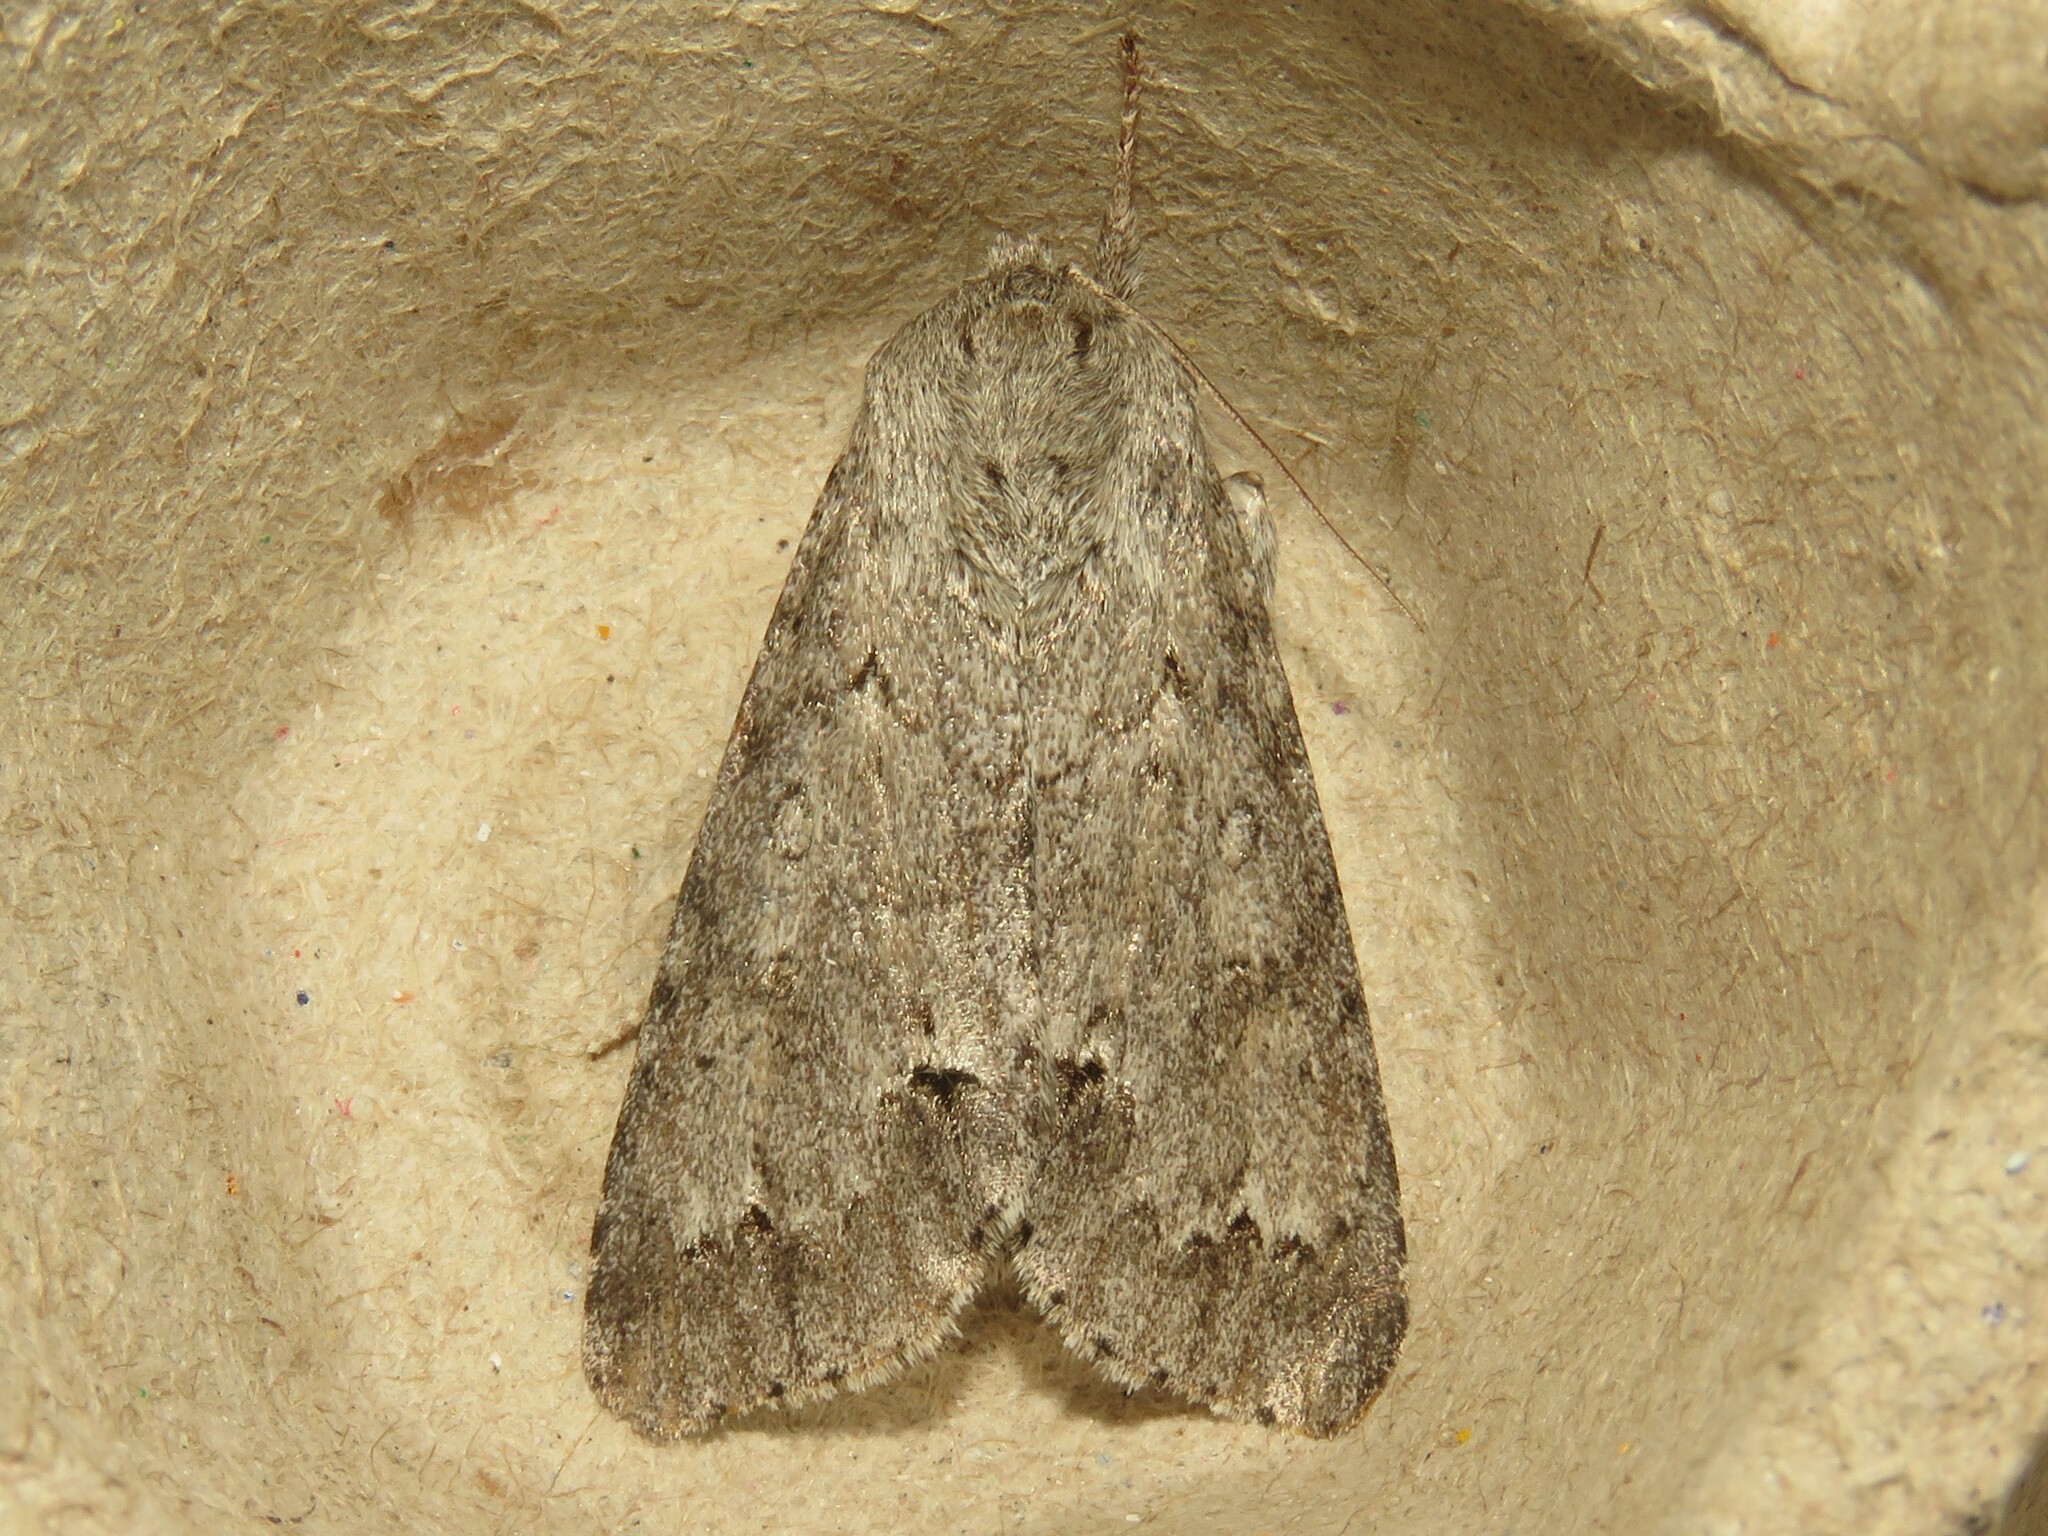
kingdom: Animalia
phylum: Arthropoda
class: Insecta
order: Lepidoptera
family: Noctuidae
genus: Acronicta
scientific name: Acronicta insita
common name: Large gray dagger
